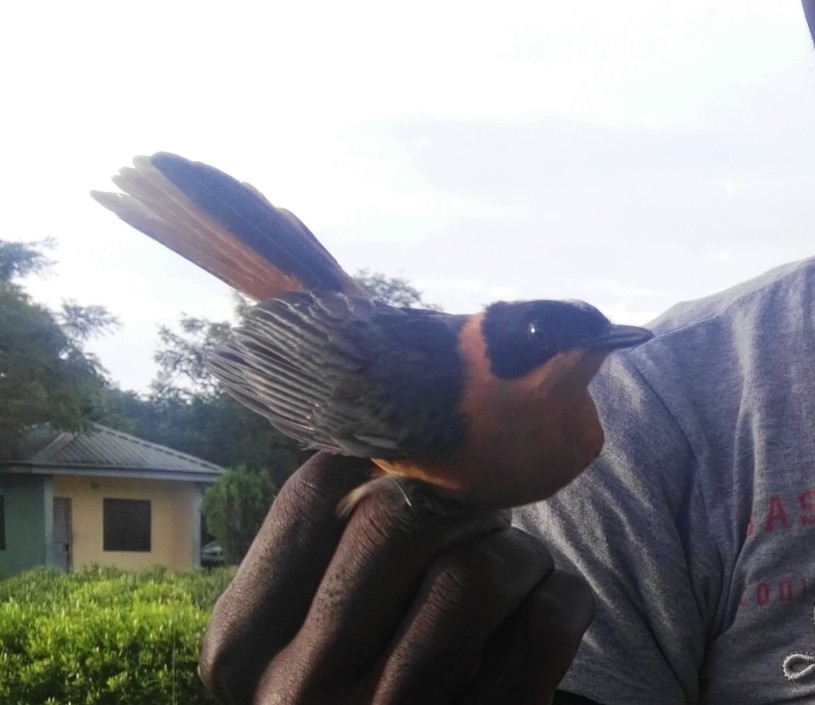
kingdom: Animalia
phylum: Chordata
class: Aves
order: Passeriformes
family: Muscicapidae
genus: Cossypha
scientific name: Cossypha niveicapilla
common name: Snowy-crowned robin-chat
